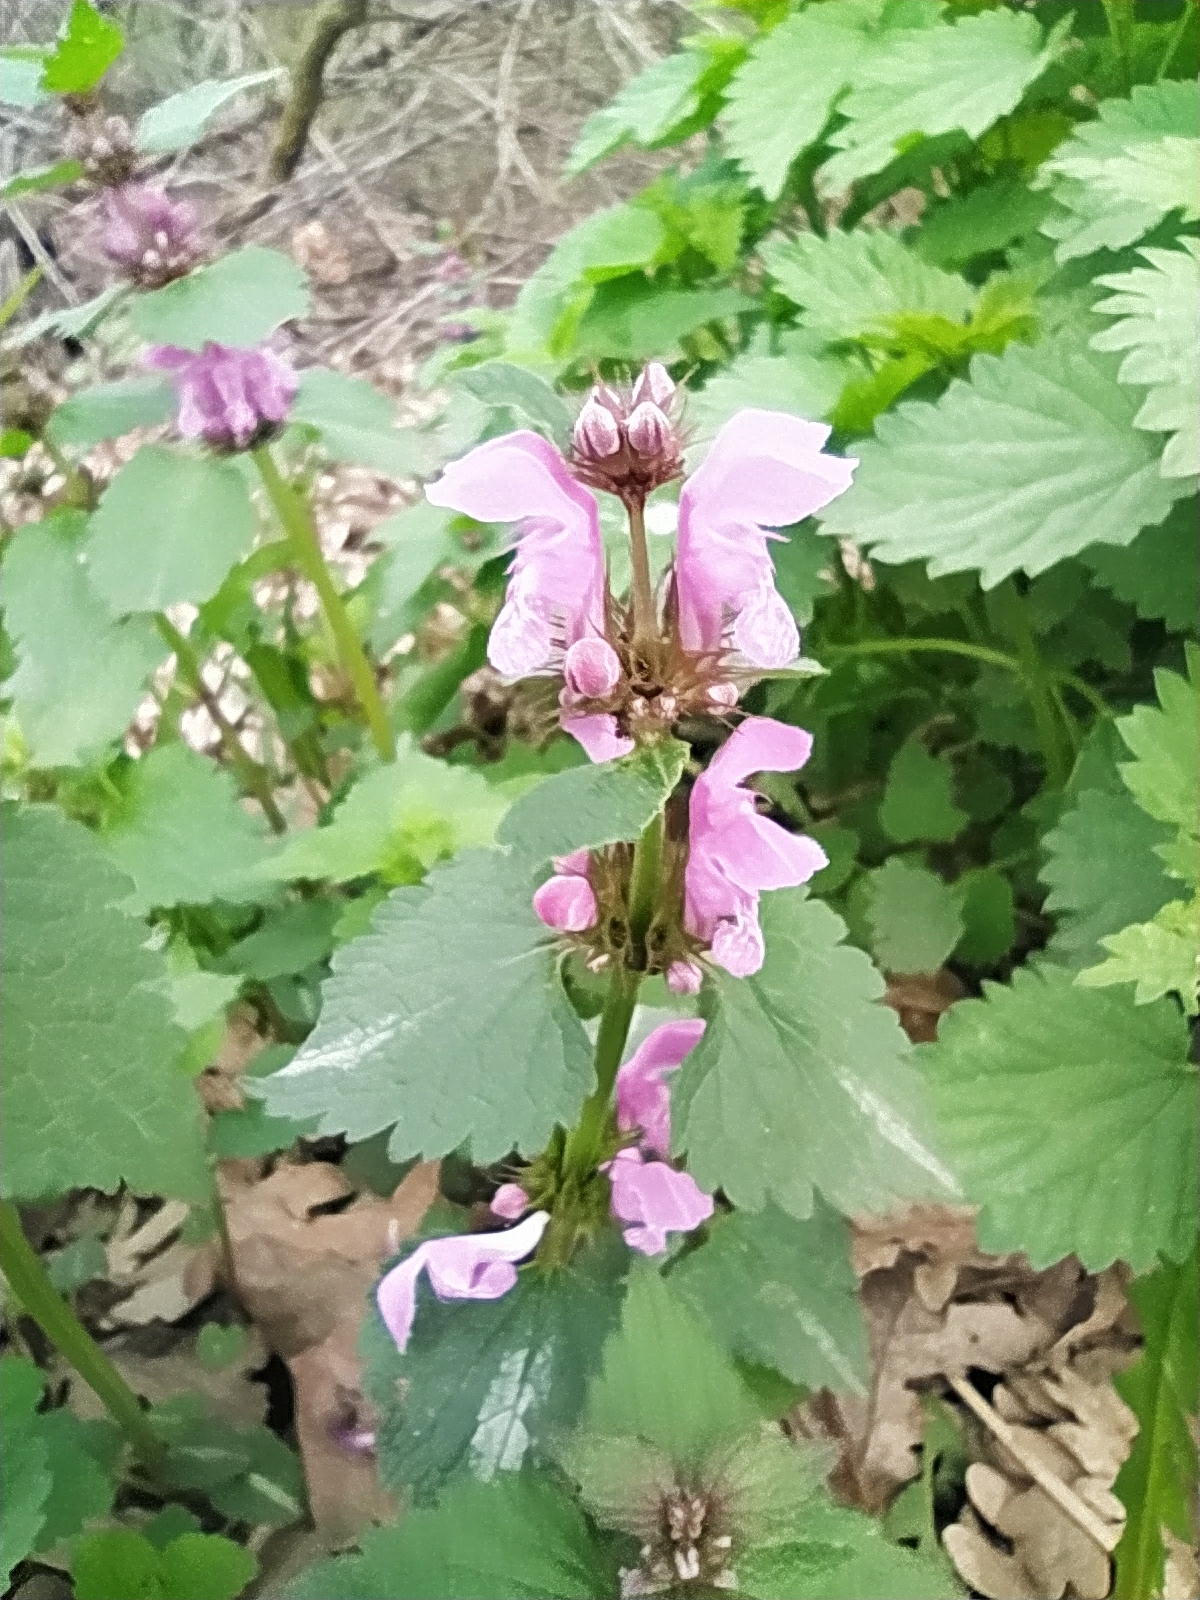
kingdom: Plantae
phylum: Tracheophyta
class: Magnoliopsida
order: Lamiales
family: Lamiaceae
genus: Lamium
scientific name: Lamium maculatum
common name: Spotted dead-nettle
